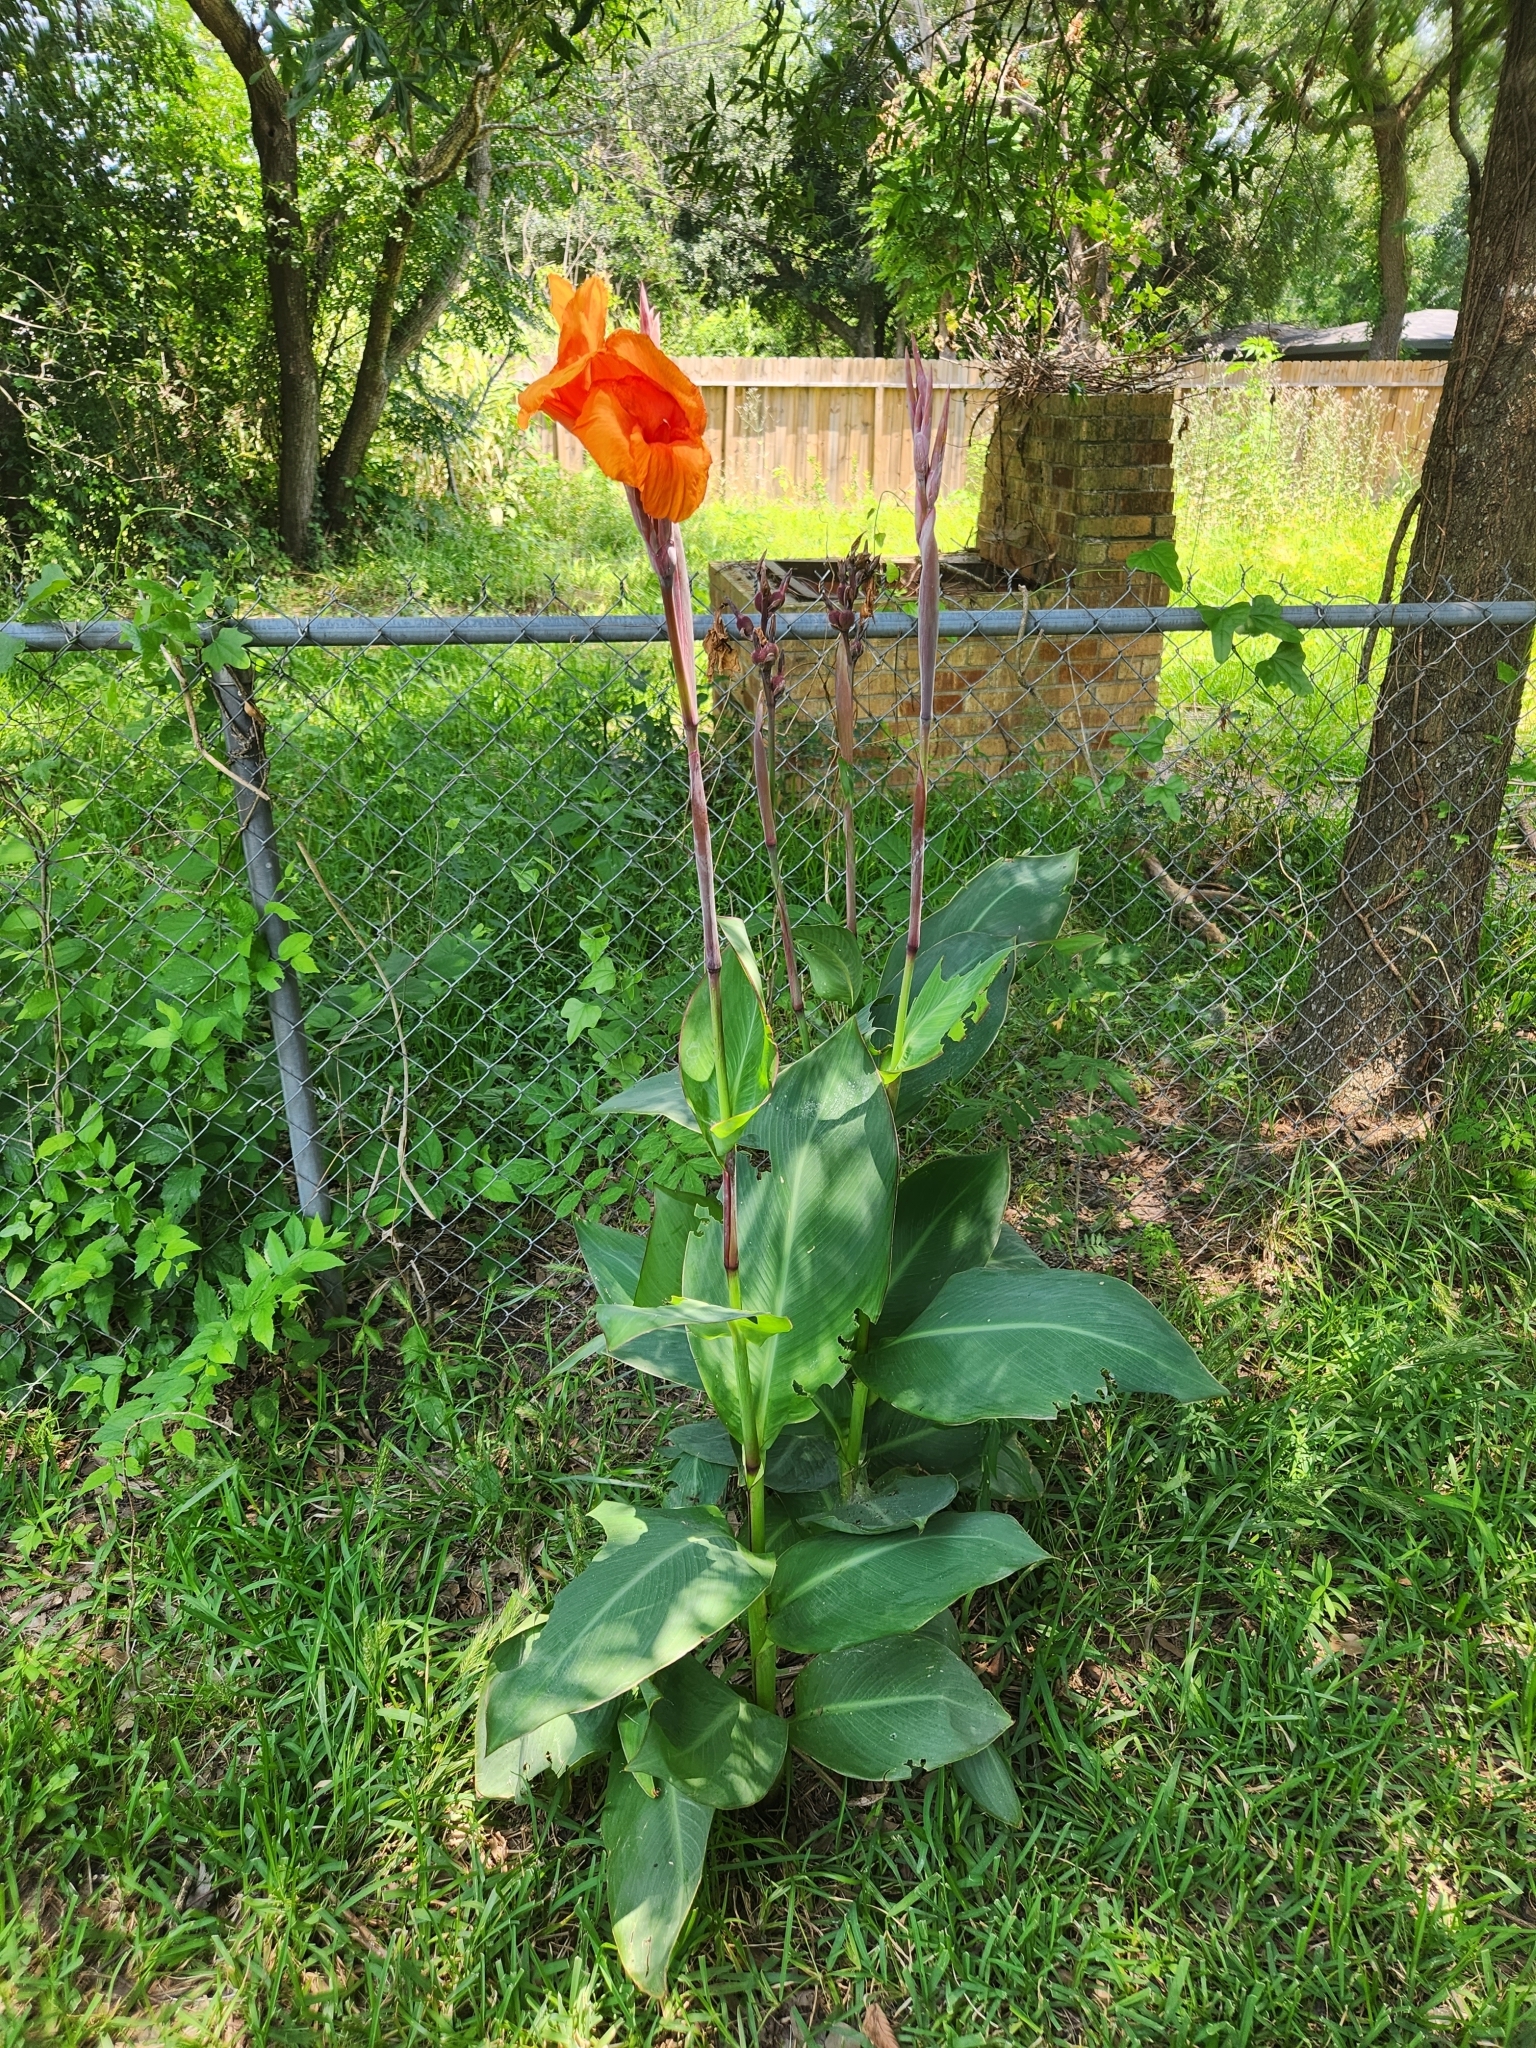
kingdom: Plantae
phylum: Tracheophyta
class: Liliopsida
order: Zingiberales
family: Cannaceae
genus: Canna
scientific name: Canna hybrida
